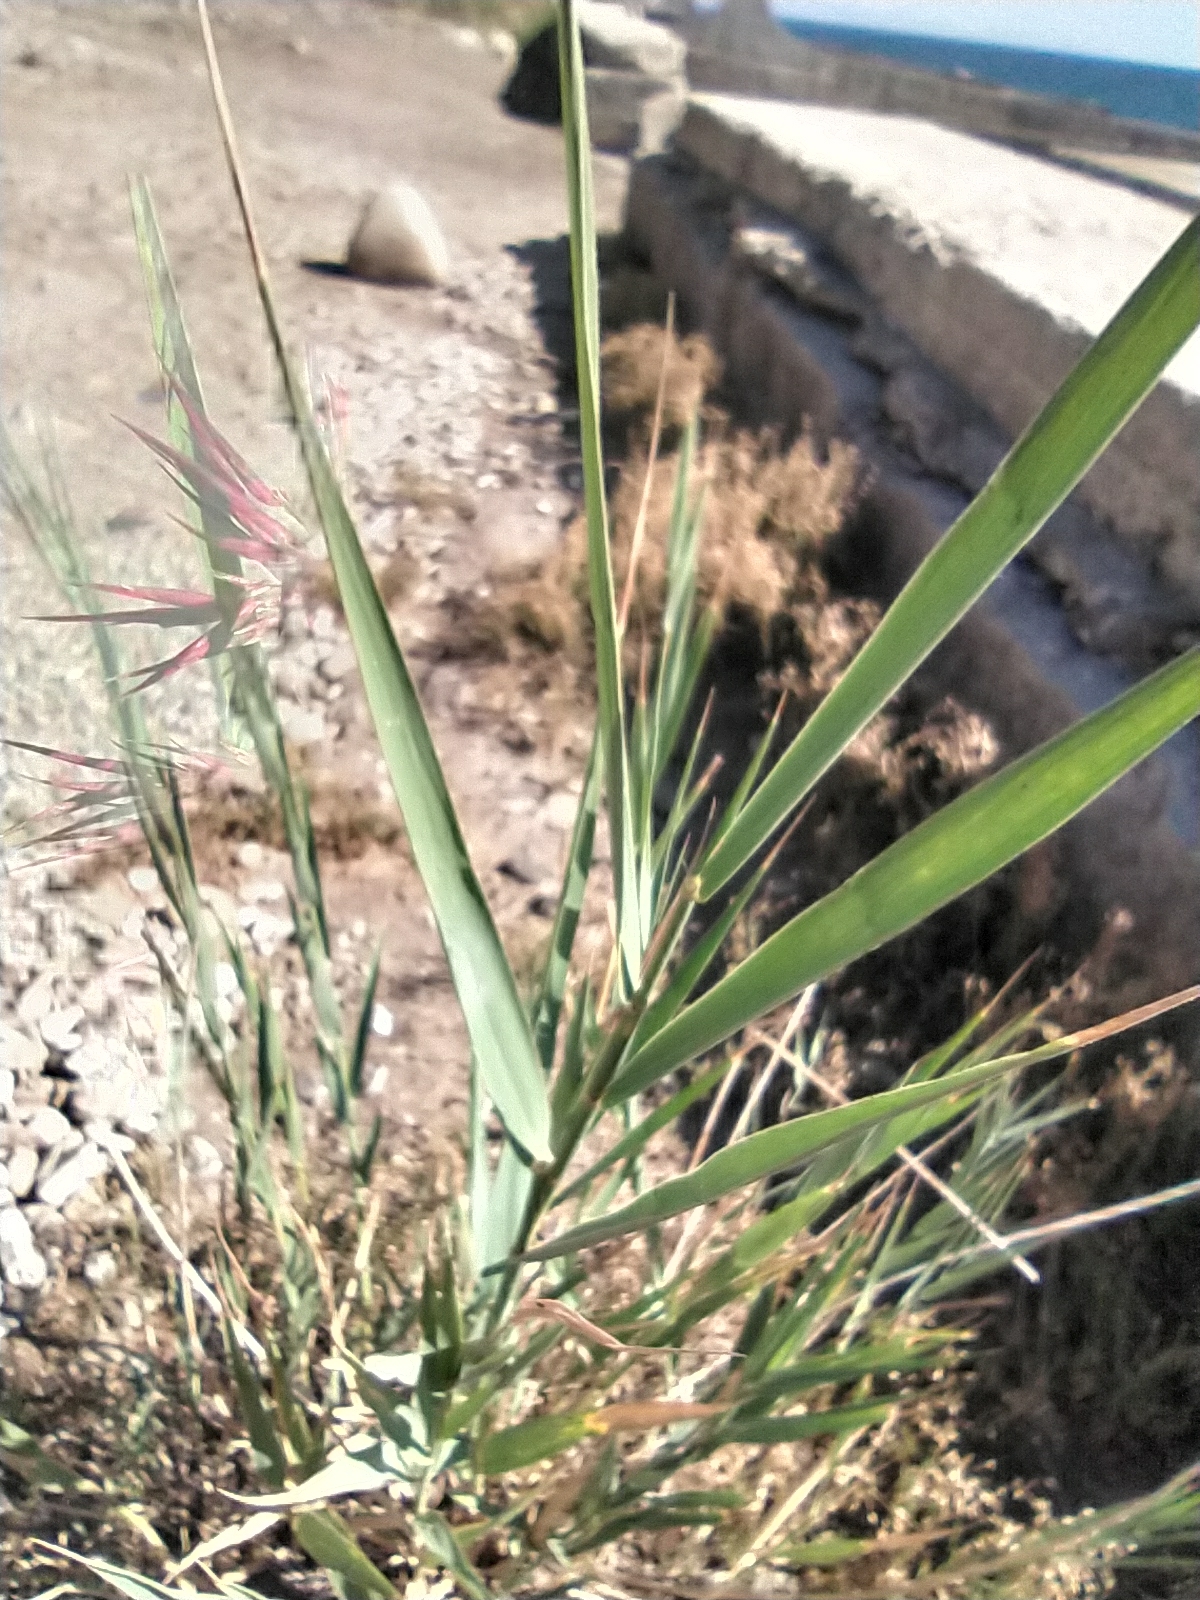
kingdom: Plantae
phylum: Tracheophyta
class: Liliopsida
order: Poales
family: Poaceae
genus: Phragmites
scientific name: Phragmites australis
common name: Common reed
